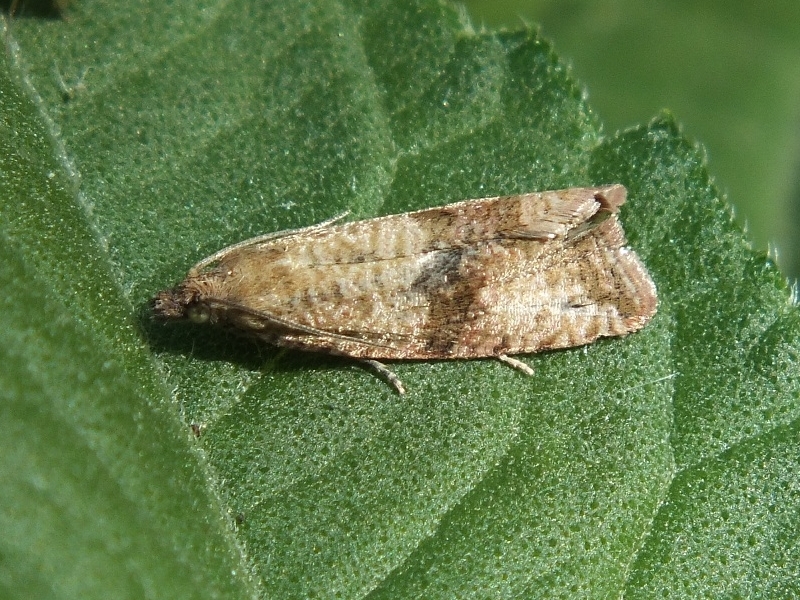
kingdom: Animalia
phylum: Arthropoda
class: Insecta
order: Lepidoptera
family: Tortricidae
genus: Celypha
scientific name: Celypha striana
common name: Barred marble
